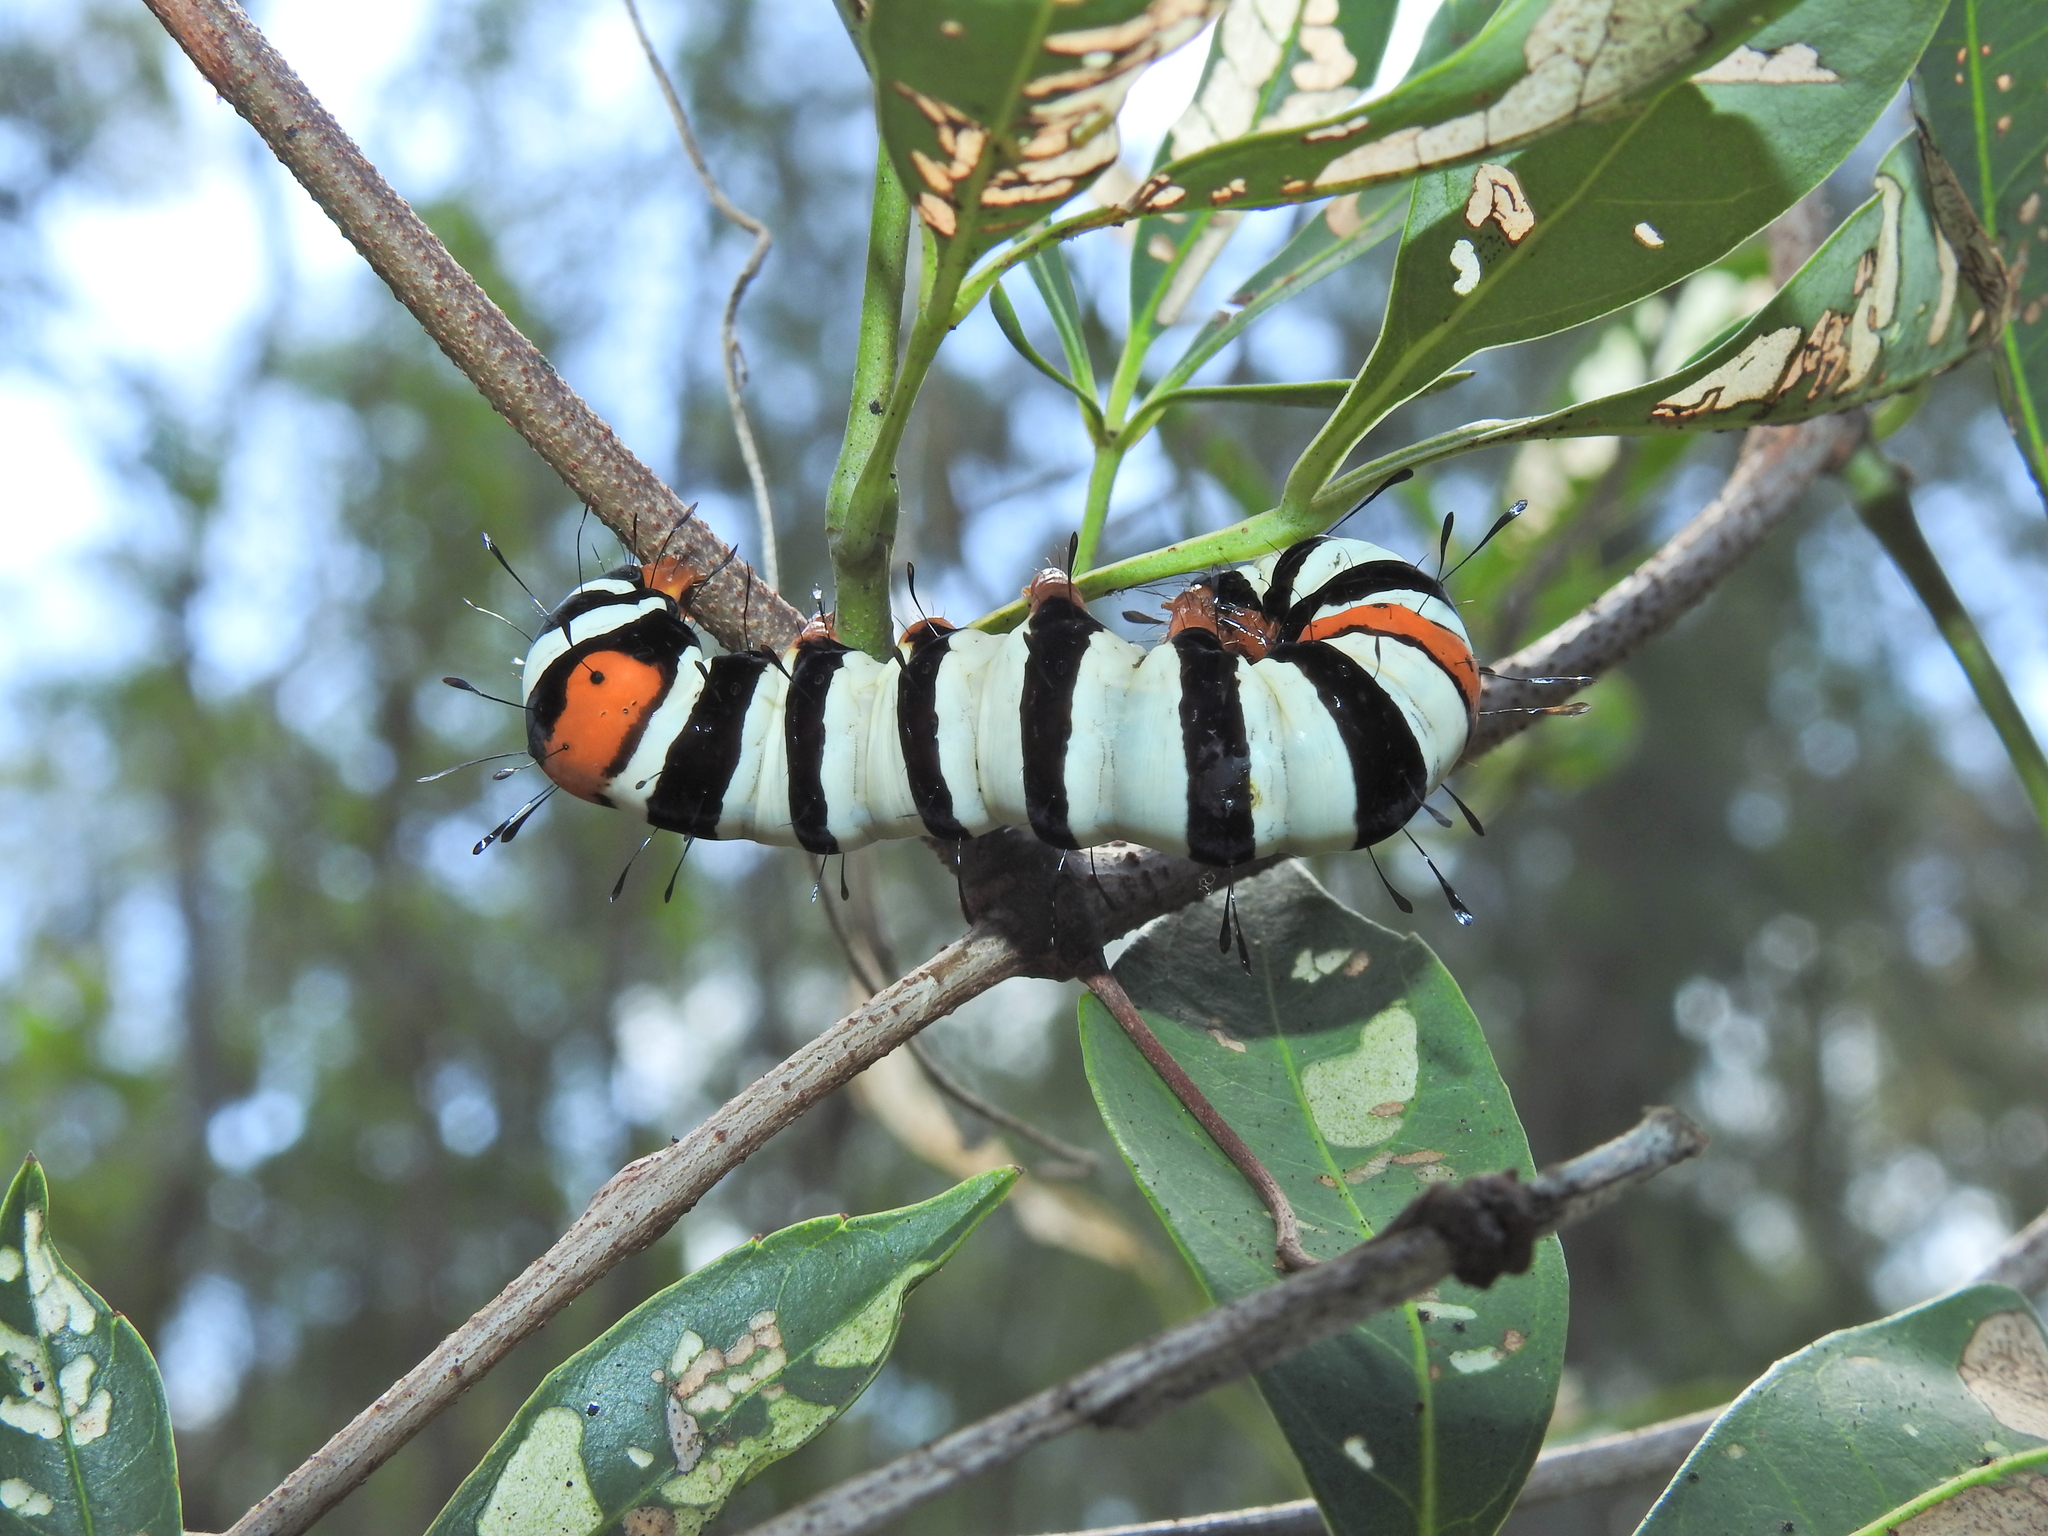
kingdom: Animalia
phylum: Arthropoda
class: Insecta
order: Lepidoptera
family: Noctuidae
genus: Agarista
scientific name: Agarista agricola
